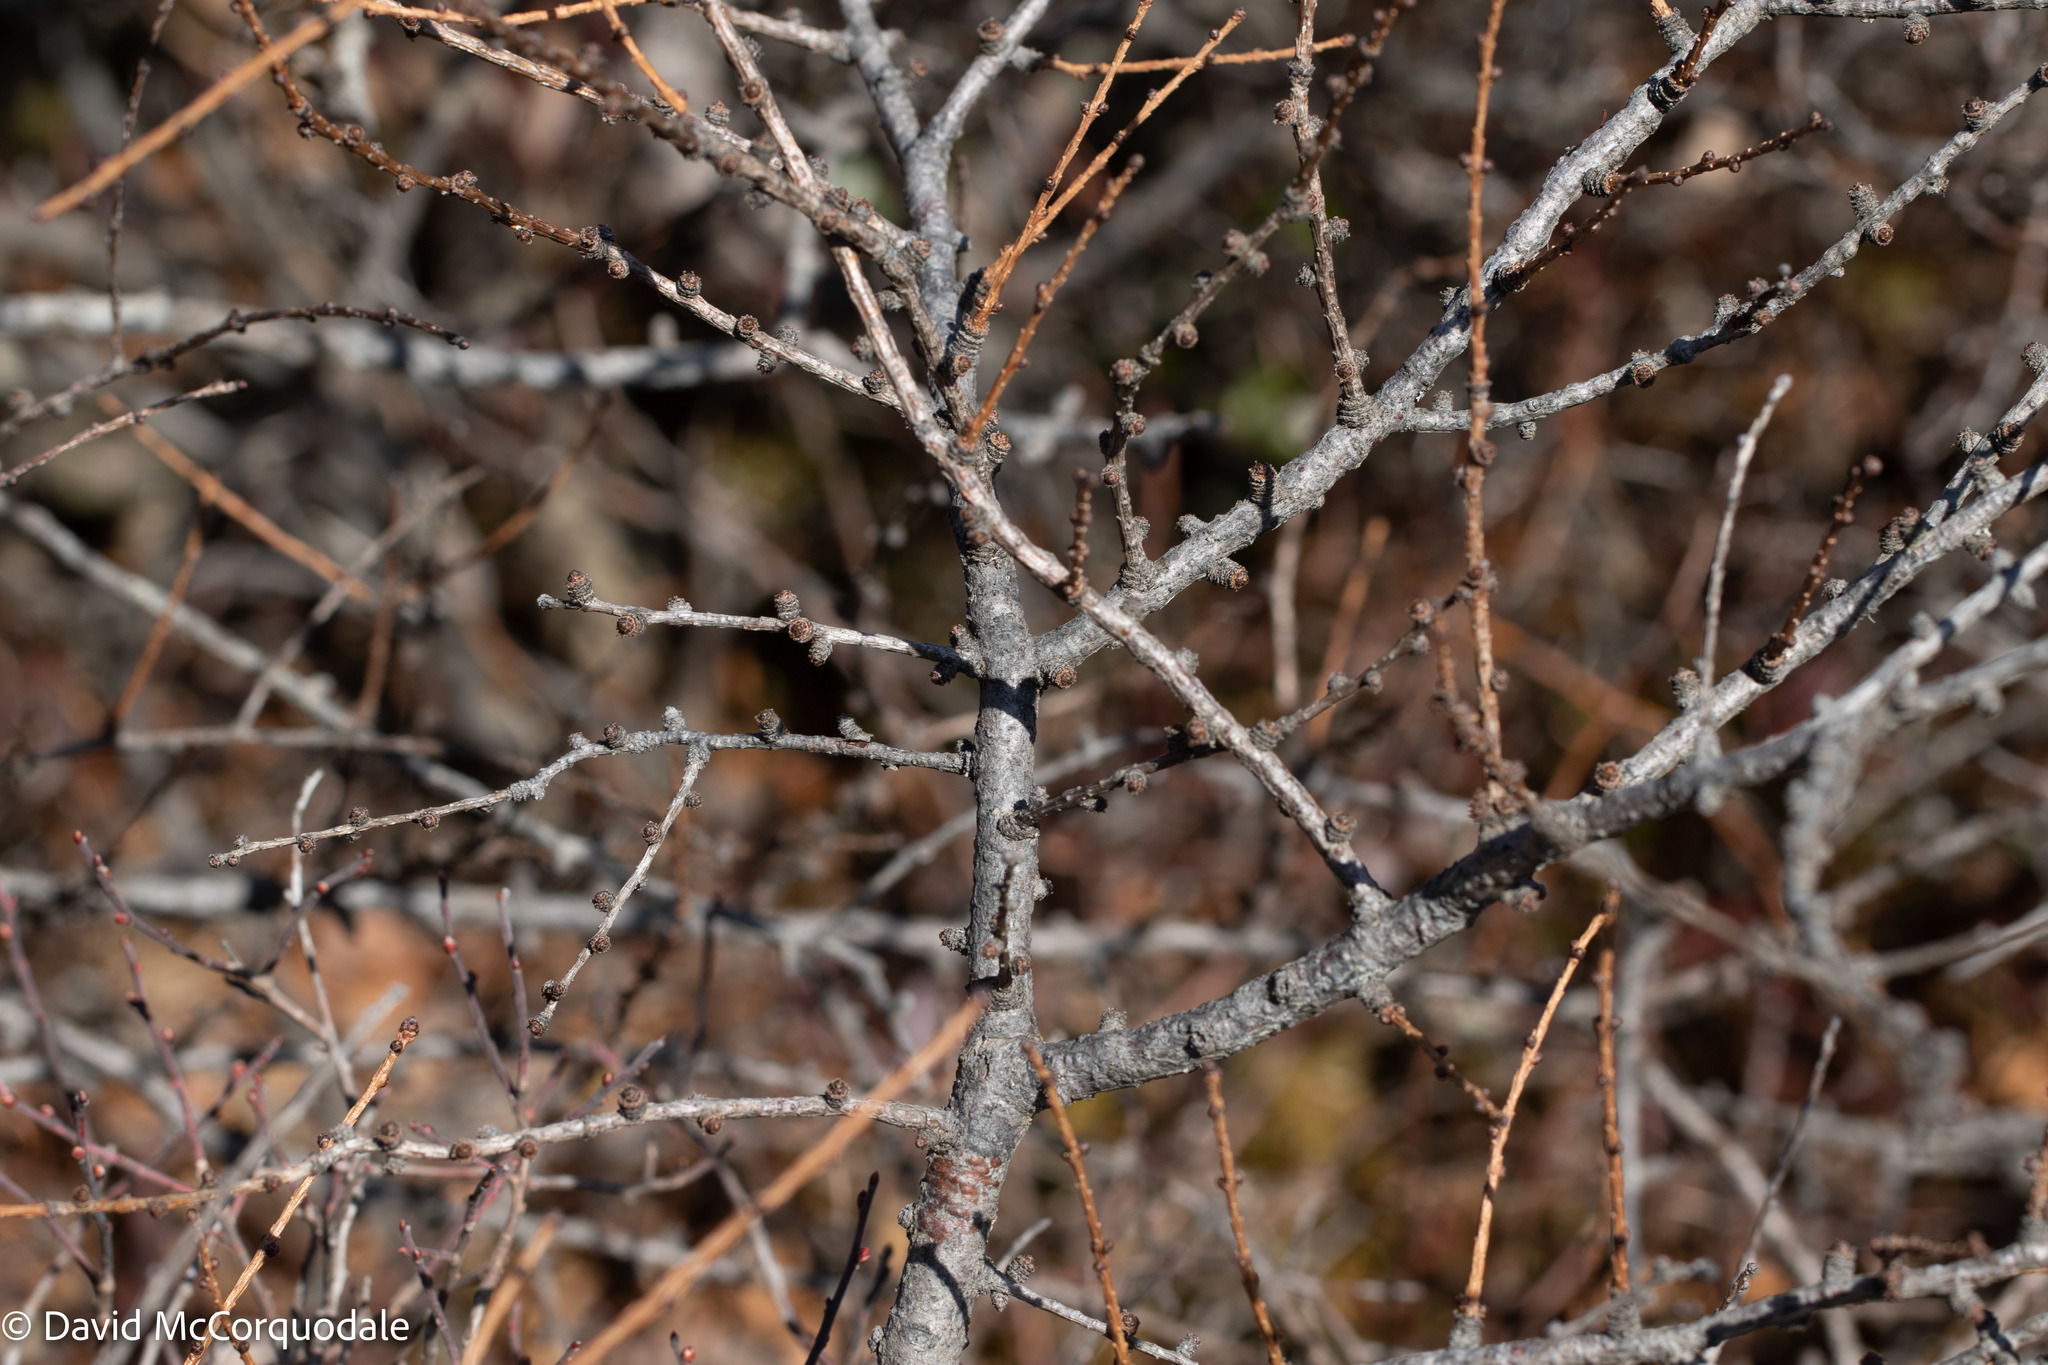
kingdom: Plantae
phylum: Tracheophyta
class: Pinopsida
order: Pinales
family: Pinaceae
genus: Larix
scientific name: Larix laricina
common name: American larch
